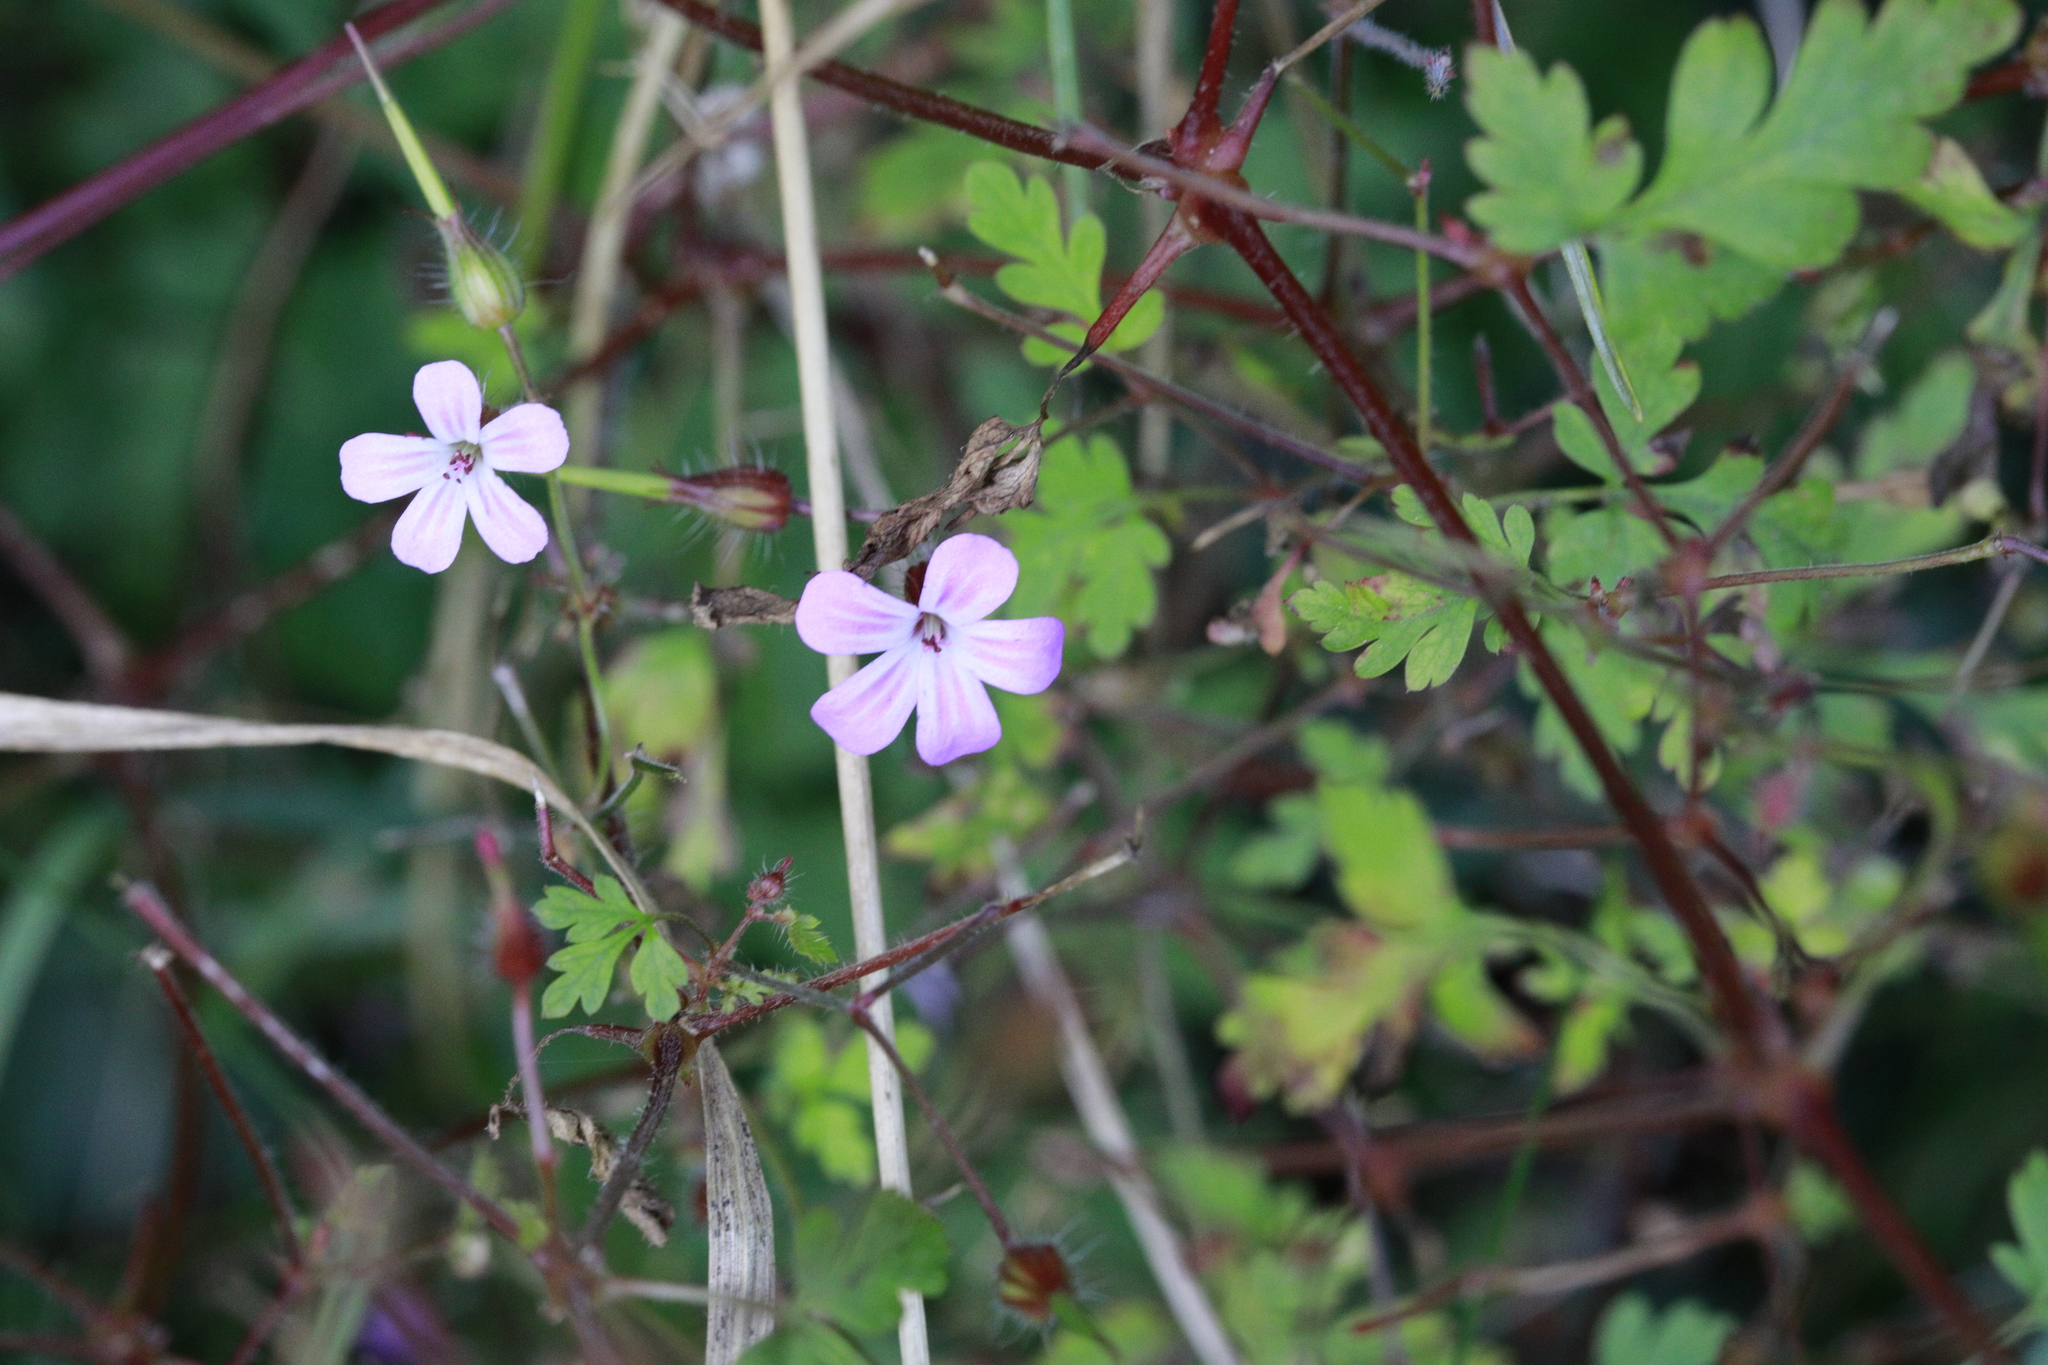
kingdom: Plantae
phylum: Tracheophyta
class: Magnoliopsida
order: Geraniales
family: Geraniaceae
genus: Geranium
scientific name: Geranium robertianum
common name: Herb-robert
